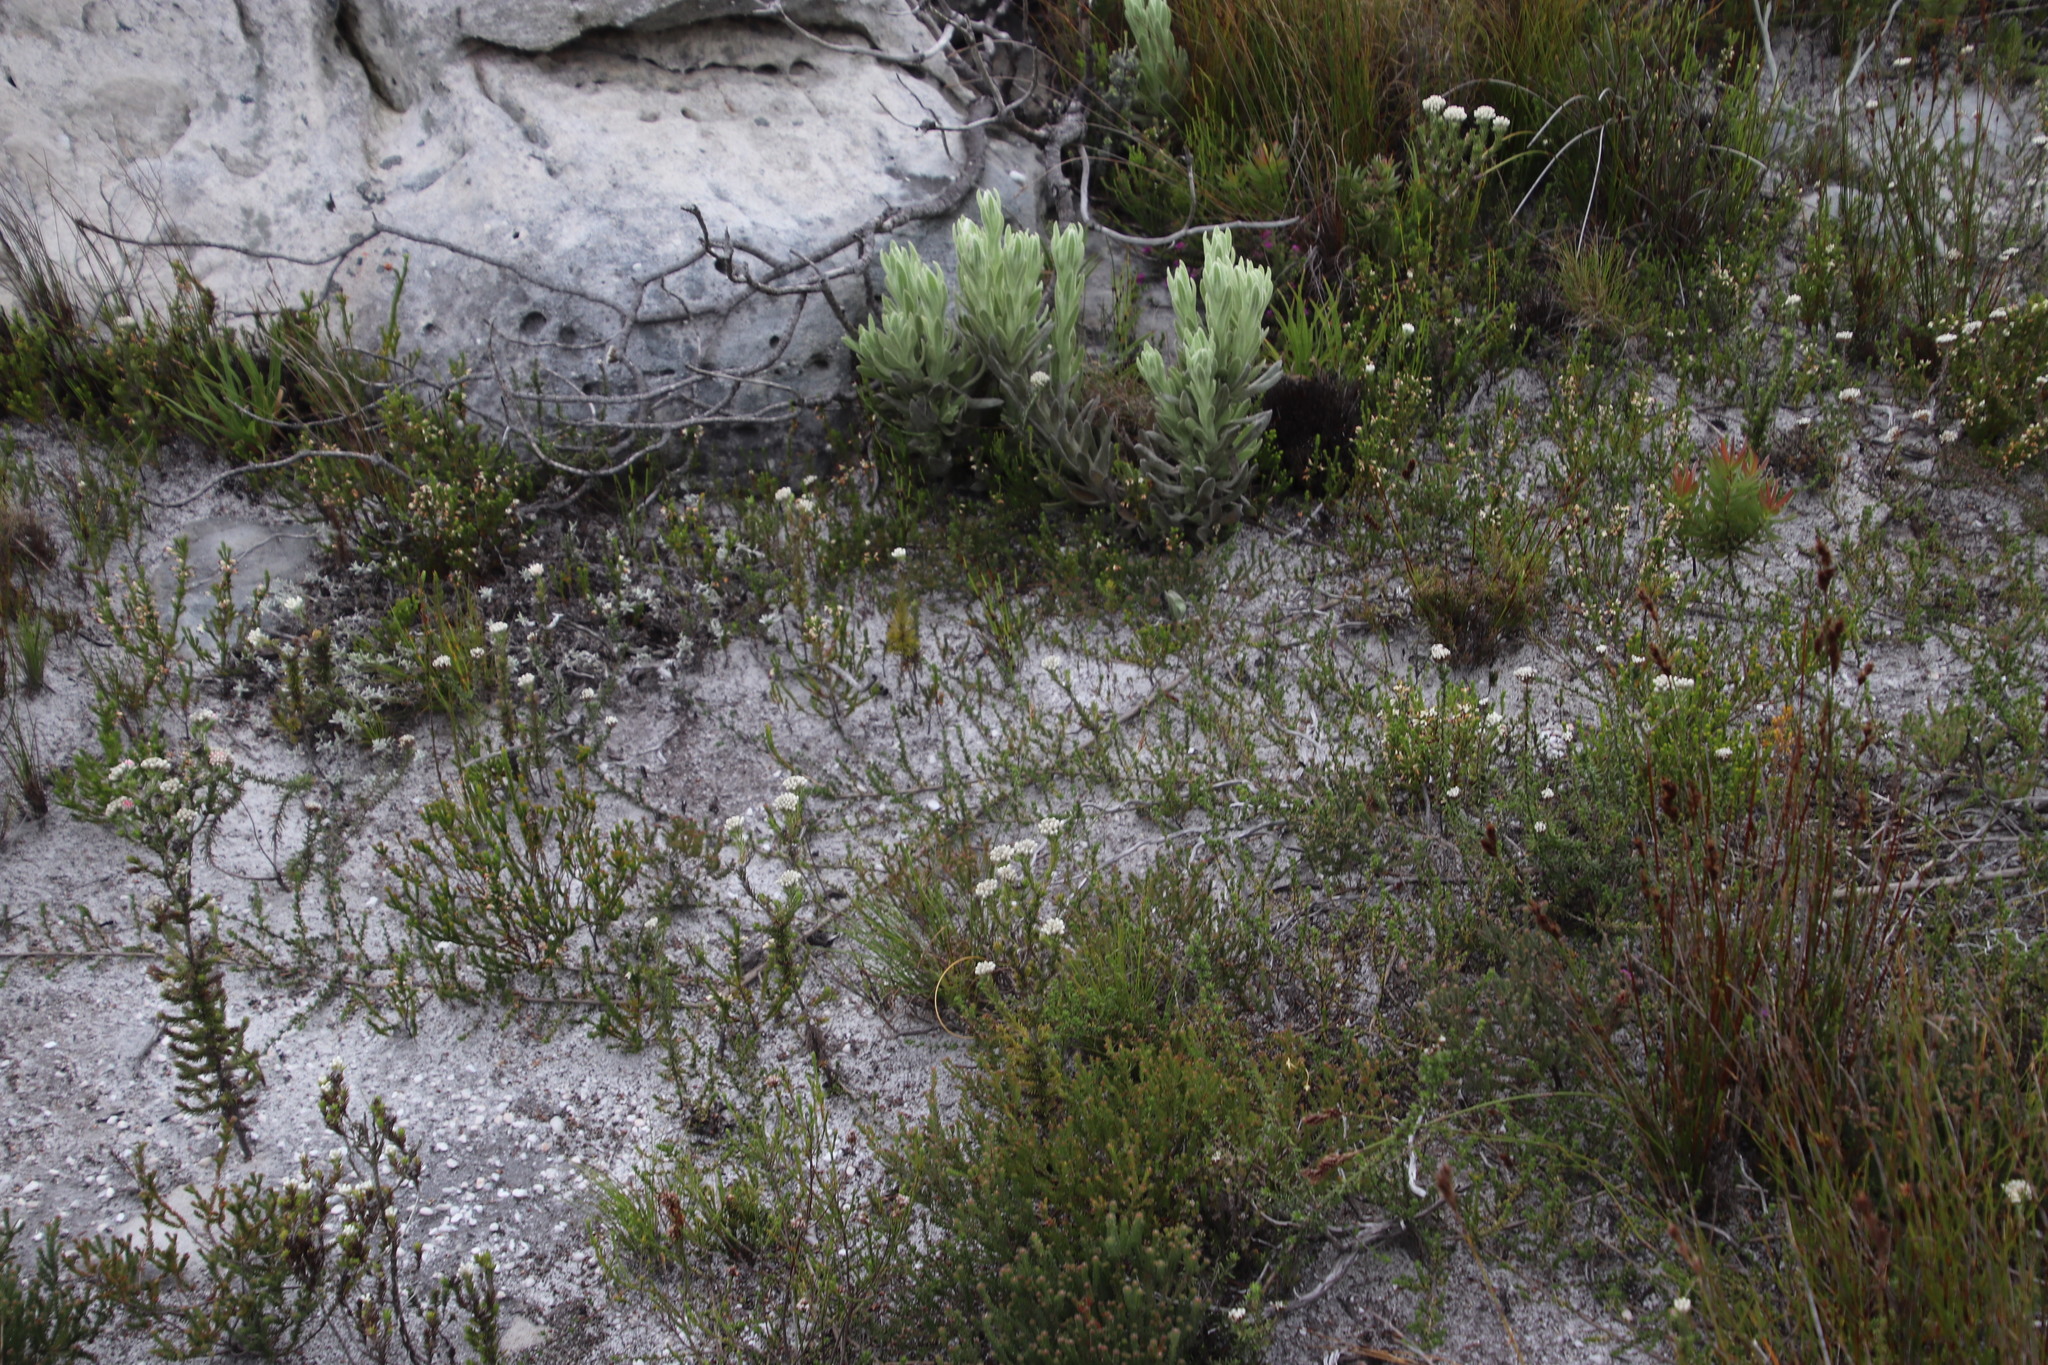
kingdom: Plantae
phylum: Tracheophyta
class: Magnoliopsida
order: Fabales
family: Fabaceae
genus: Aspalathus
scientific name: Aspalathus divaricata
